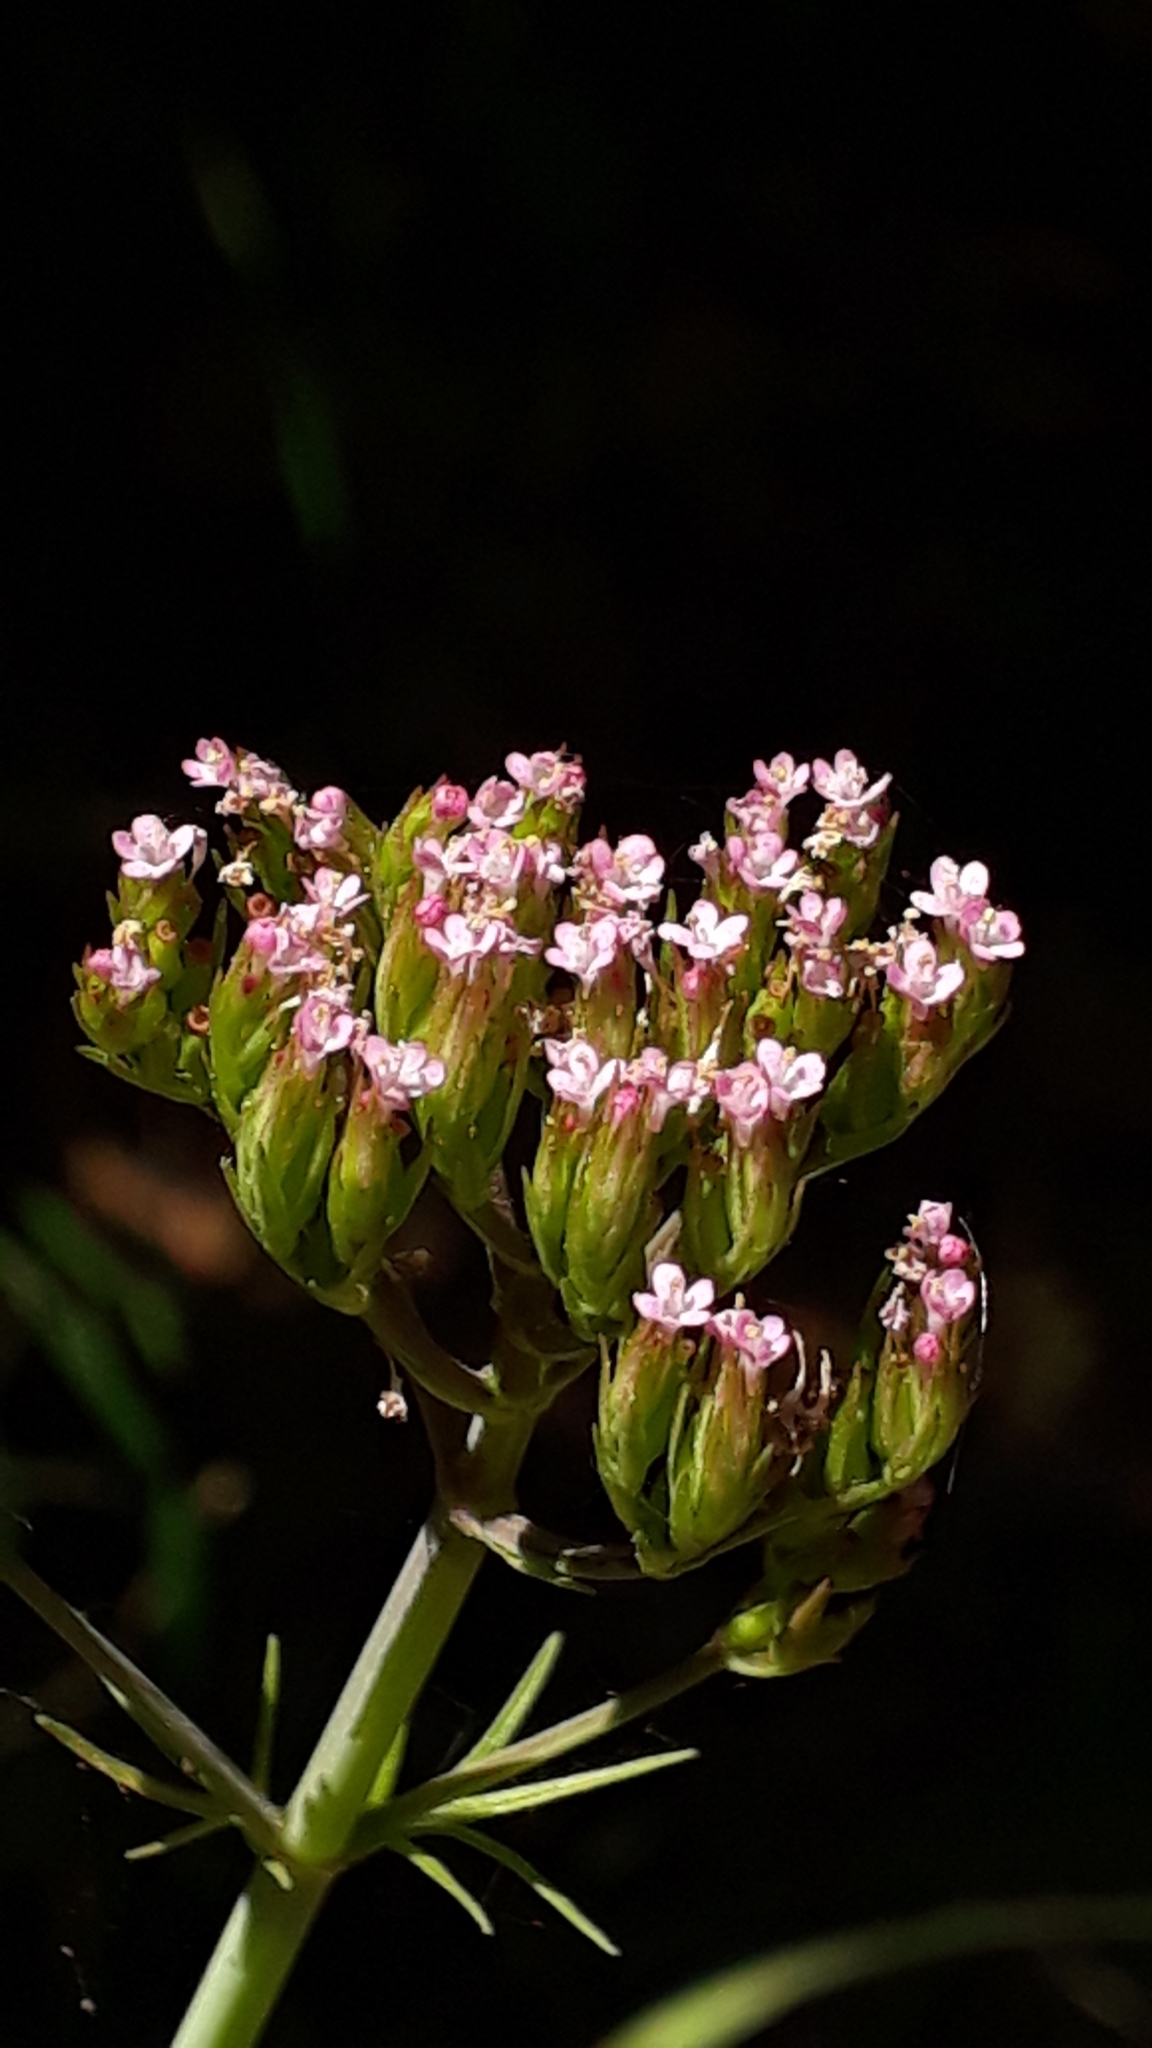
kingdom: Plantae
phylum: Tracheophyta
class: Magnoliopsida
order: Dipsacales
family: Caprifoliaceae
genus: Centranthus
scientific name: Centranthus calcitrapae
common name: Annual valerian
